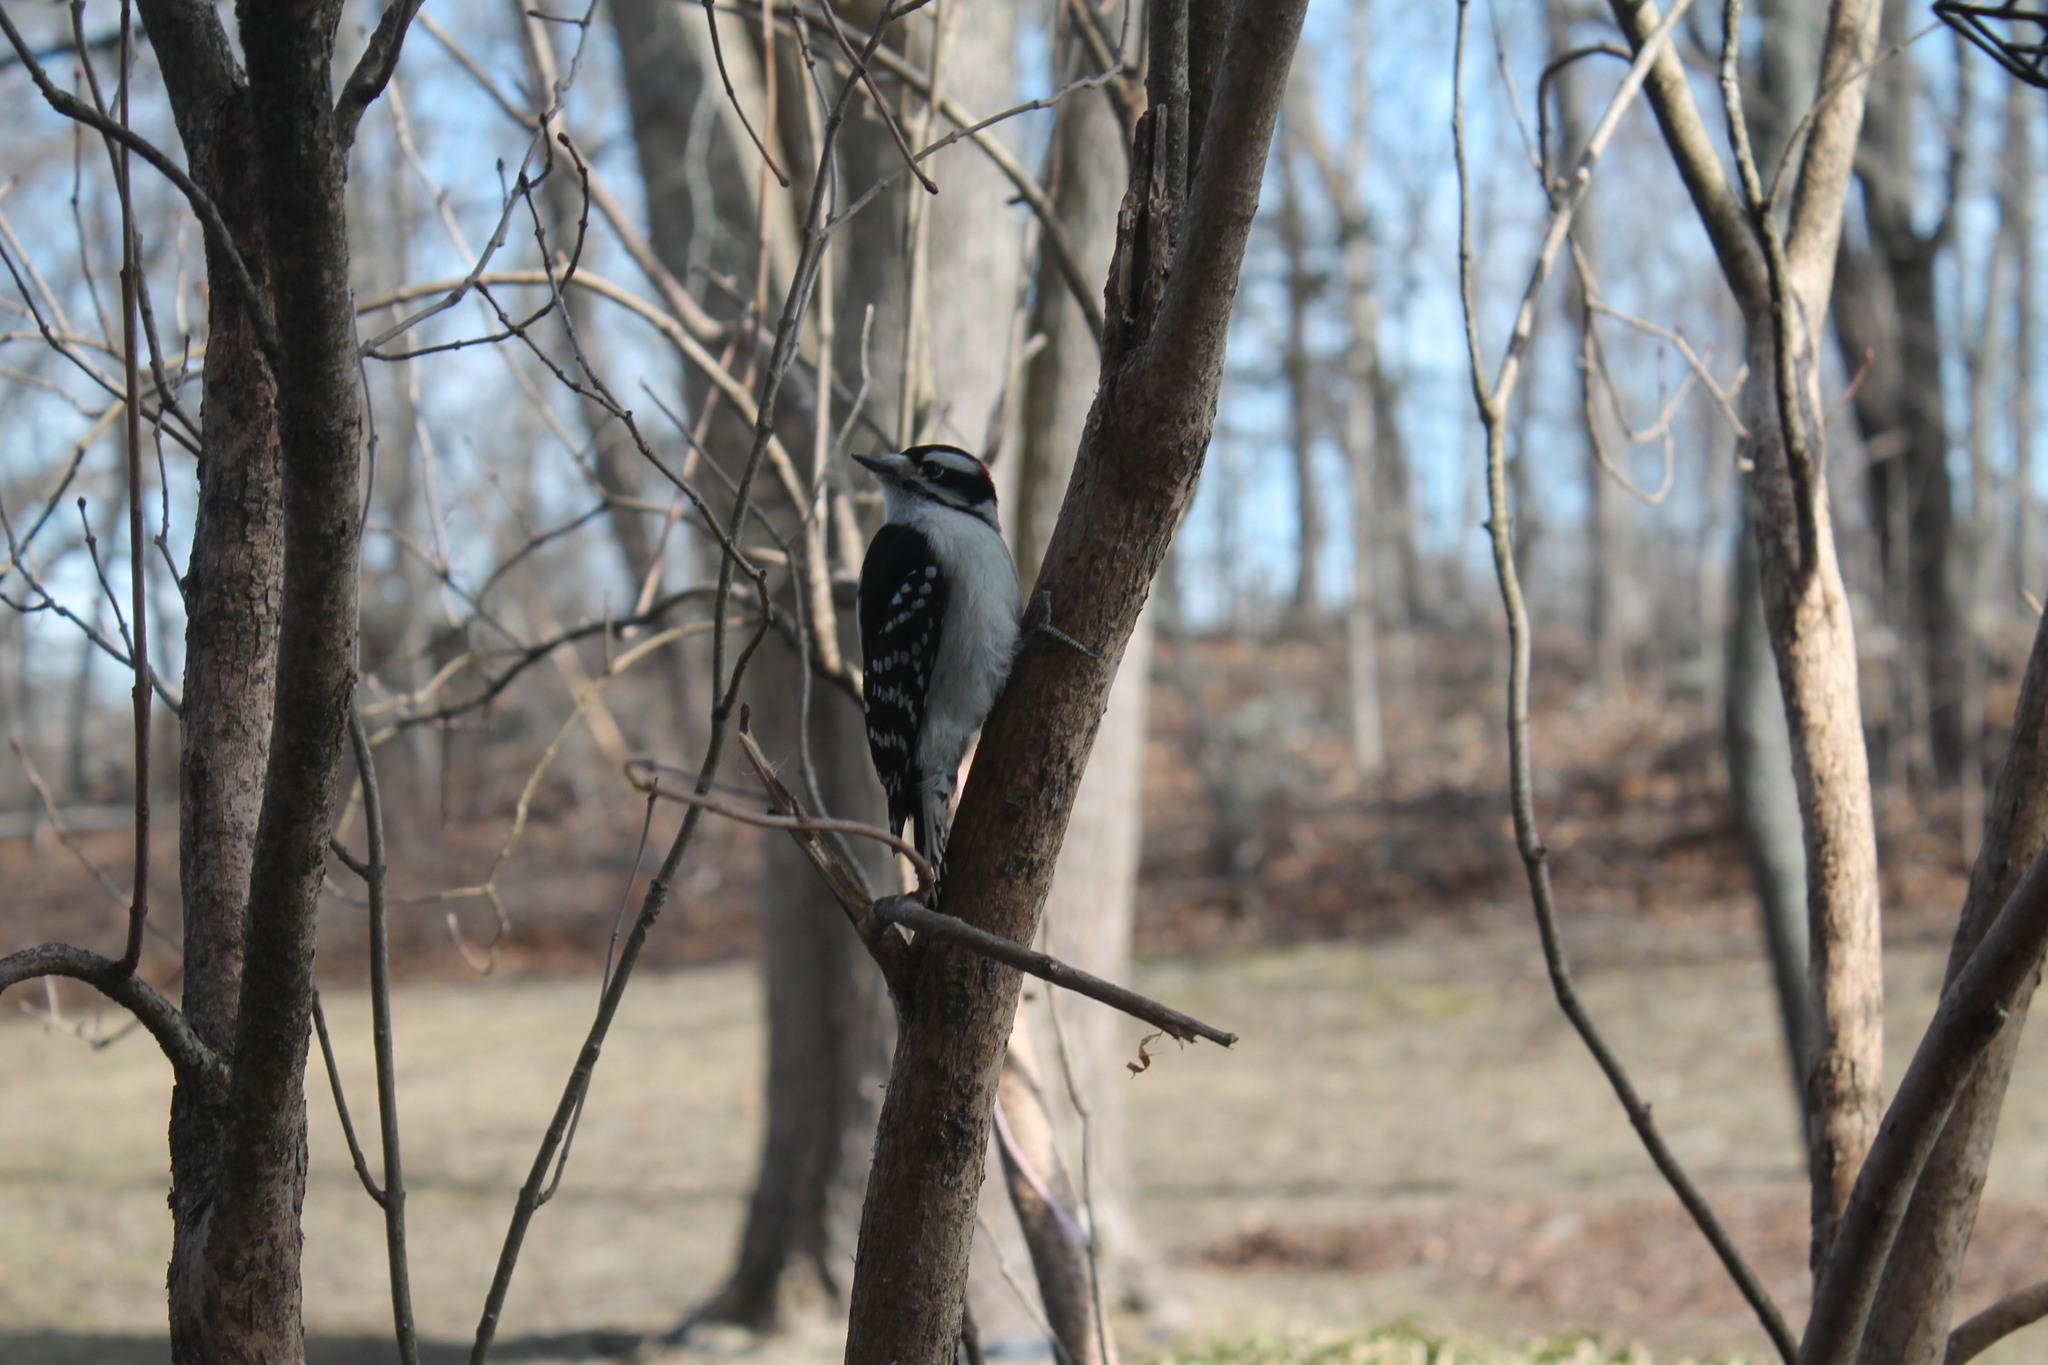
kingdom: Animalia
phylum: Chordata
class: Aves
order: Piciformes
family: Picidae
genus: Dryobates
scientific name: Dryobates pubescens
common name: Downy woodpecker
